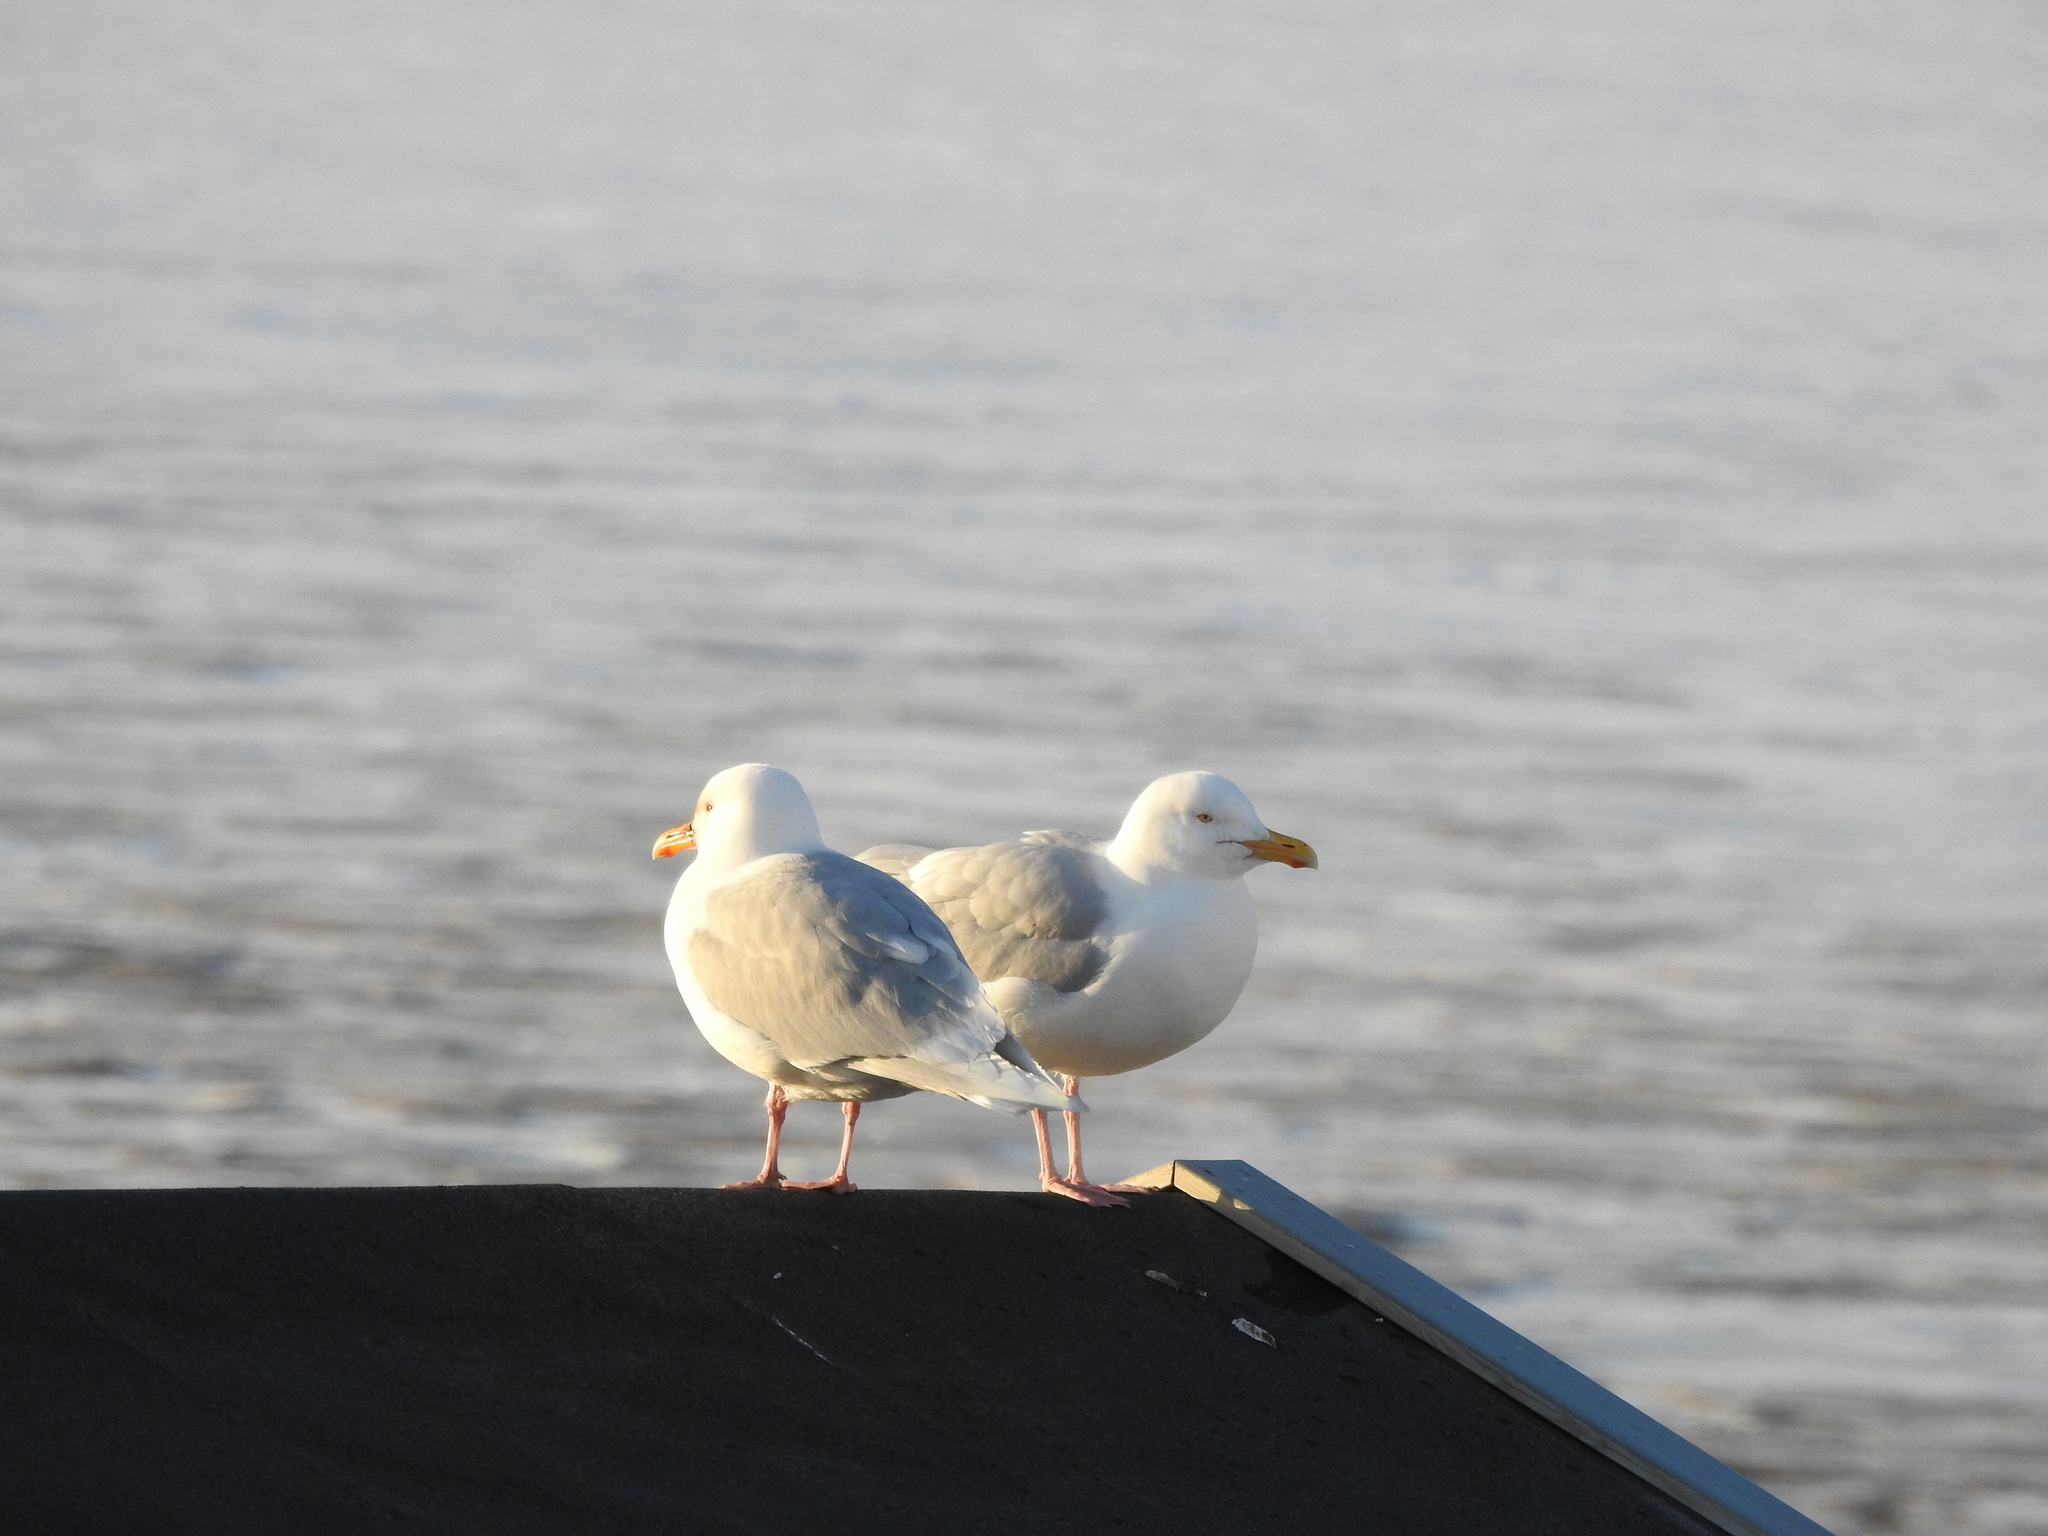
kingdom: Animalia
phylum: Chordata
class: Aves
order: Charadriiformes
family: Laridae
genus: Larus
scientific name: Larus hyperboreus
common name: Glaucous gull
